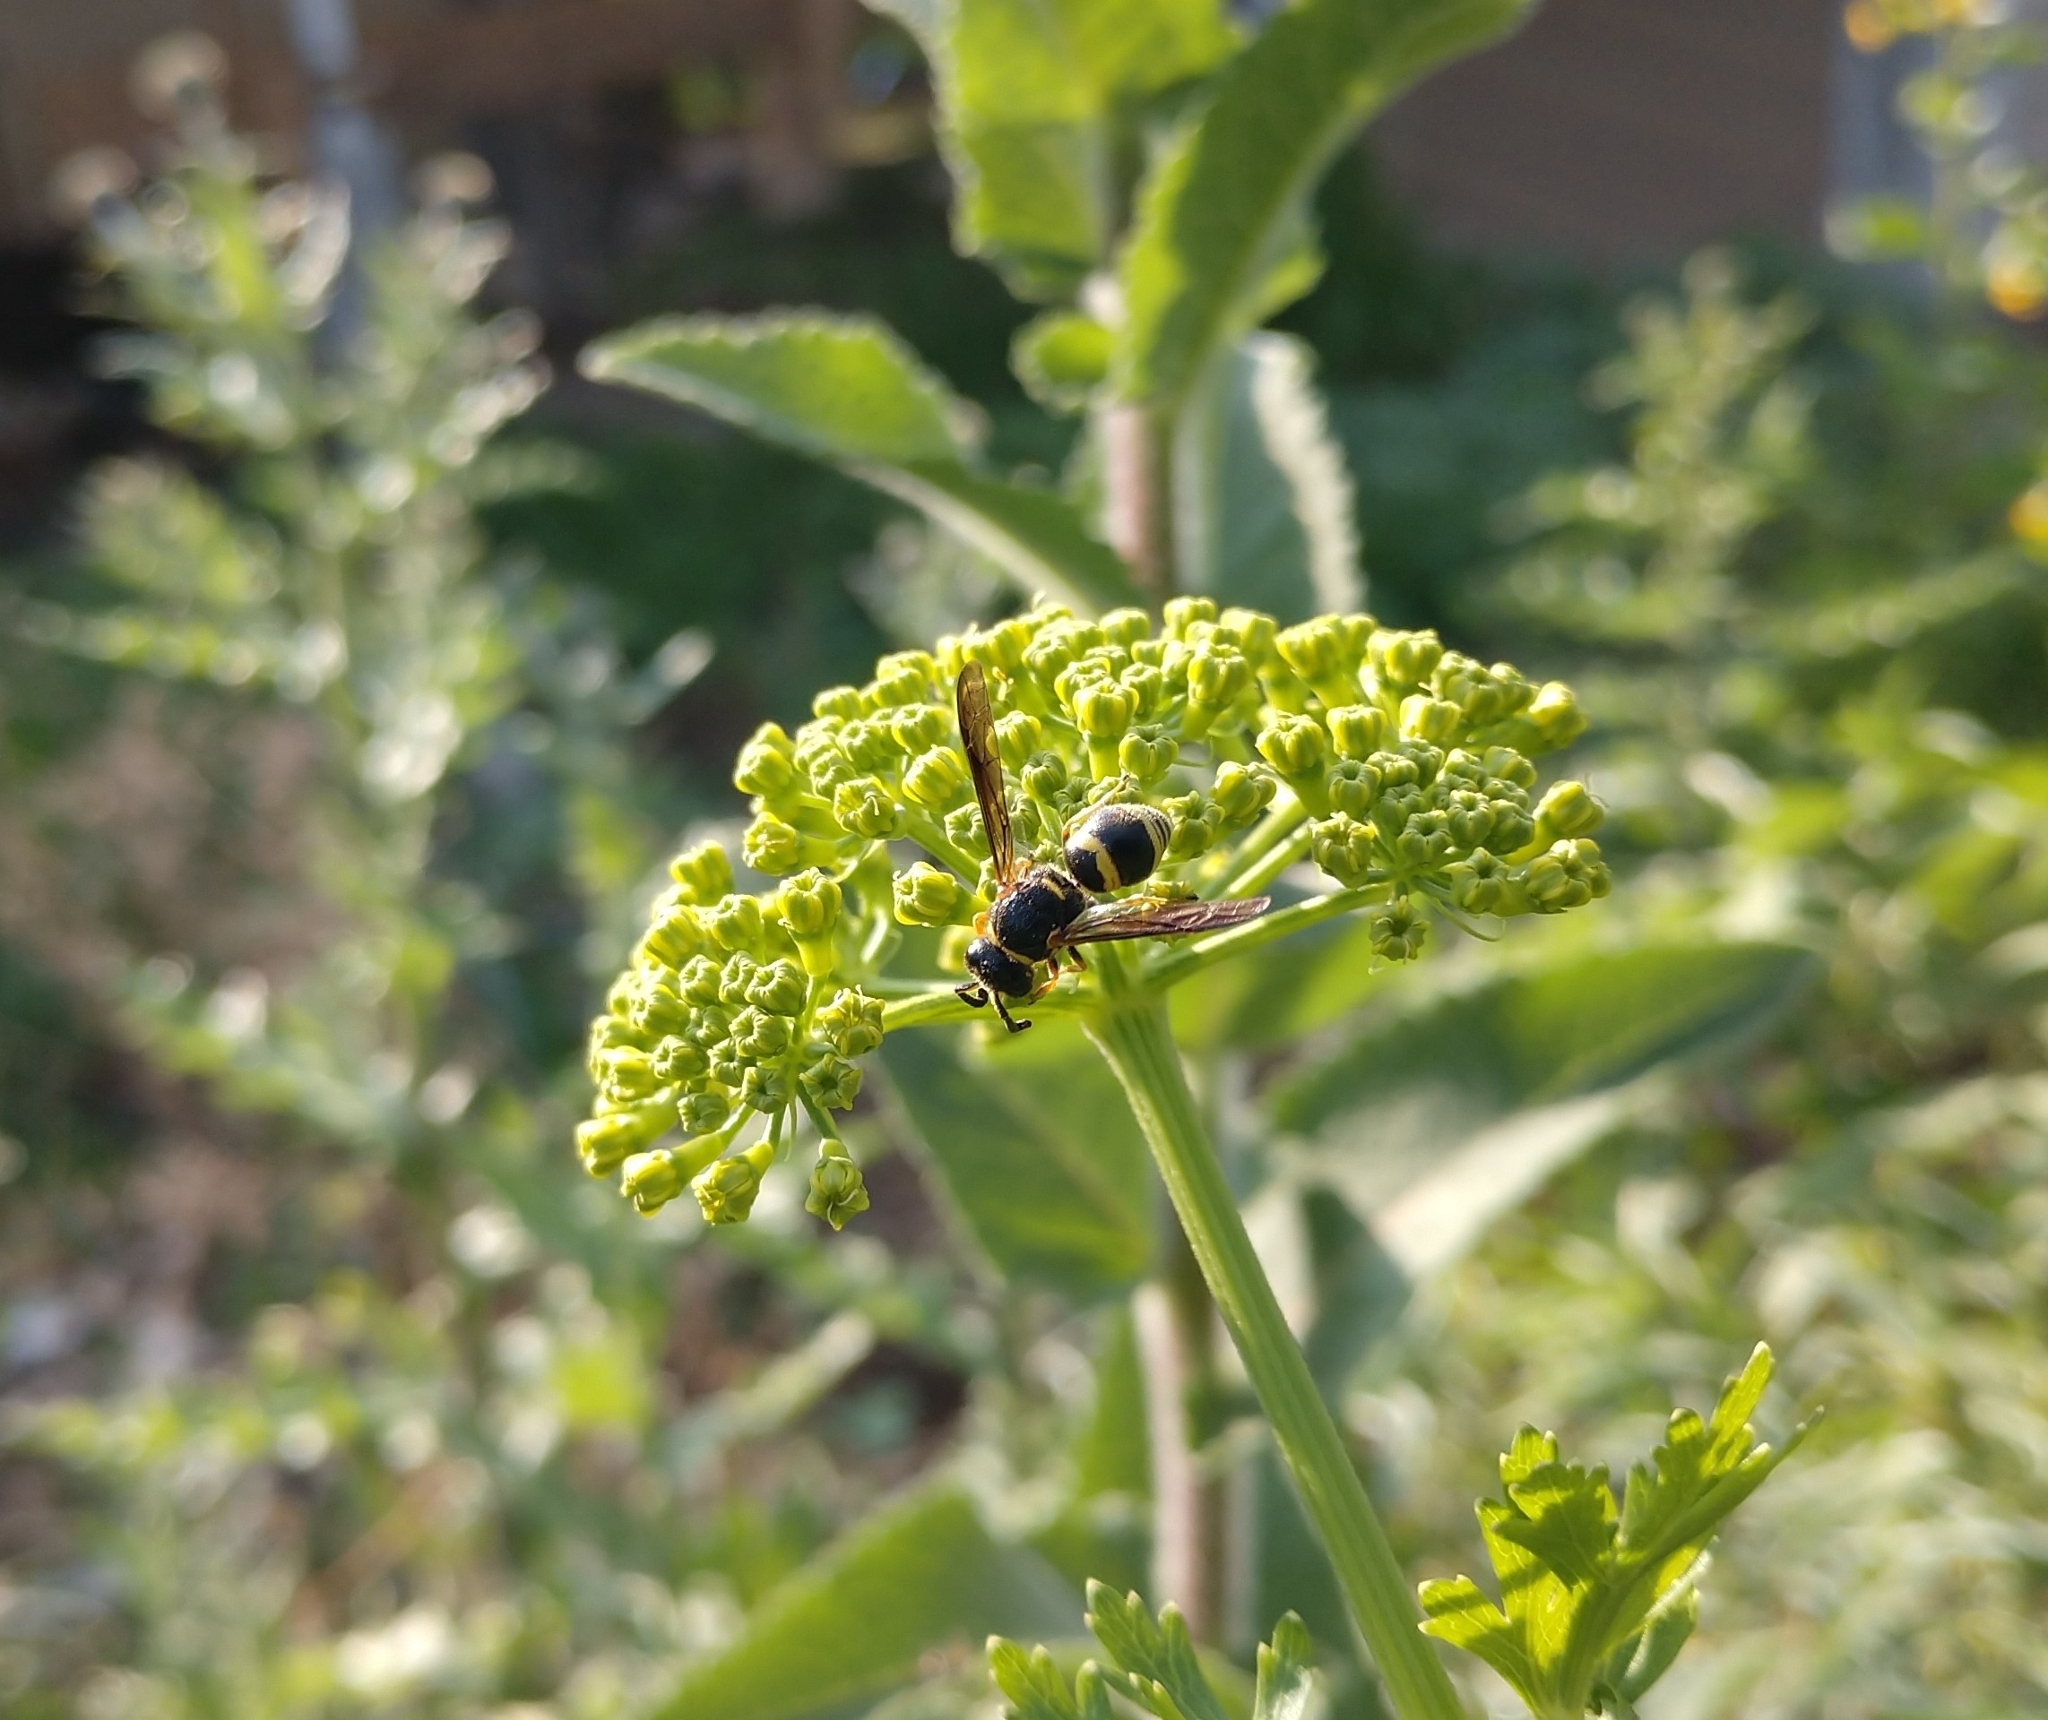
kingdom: Animalia
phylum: Arthropoda
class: Insecta
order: Hymenoptera
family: Eumenidae
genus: Euodynerus
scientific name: Euodynerus
